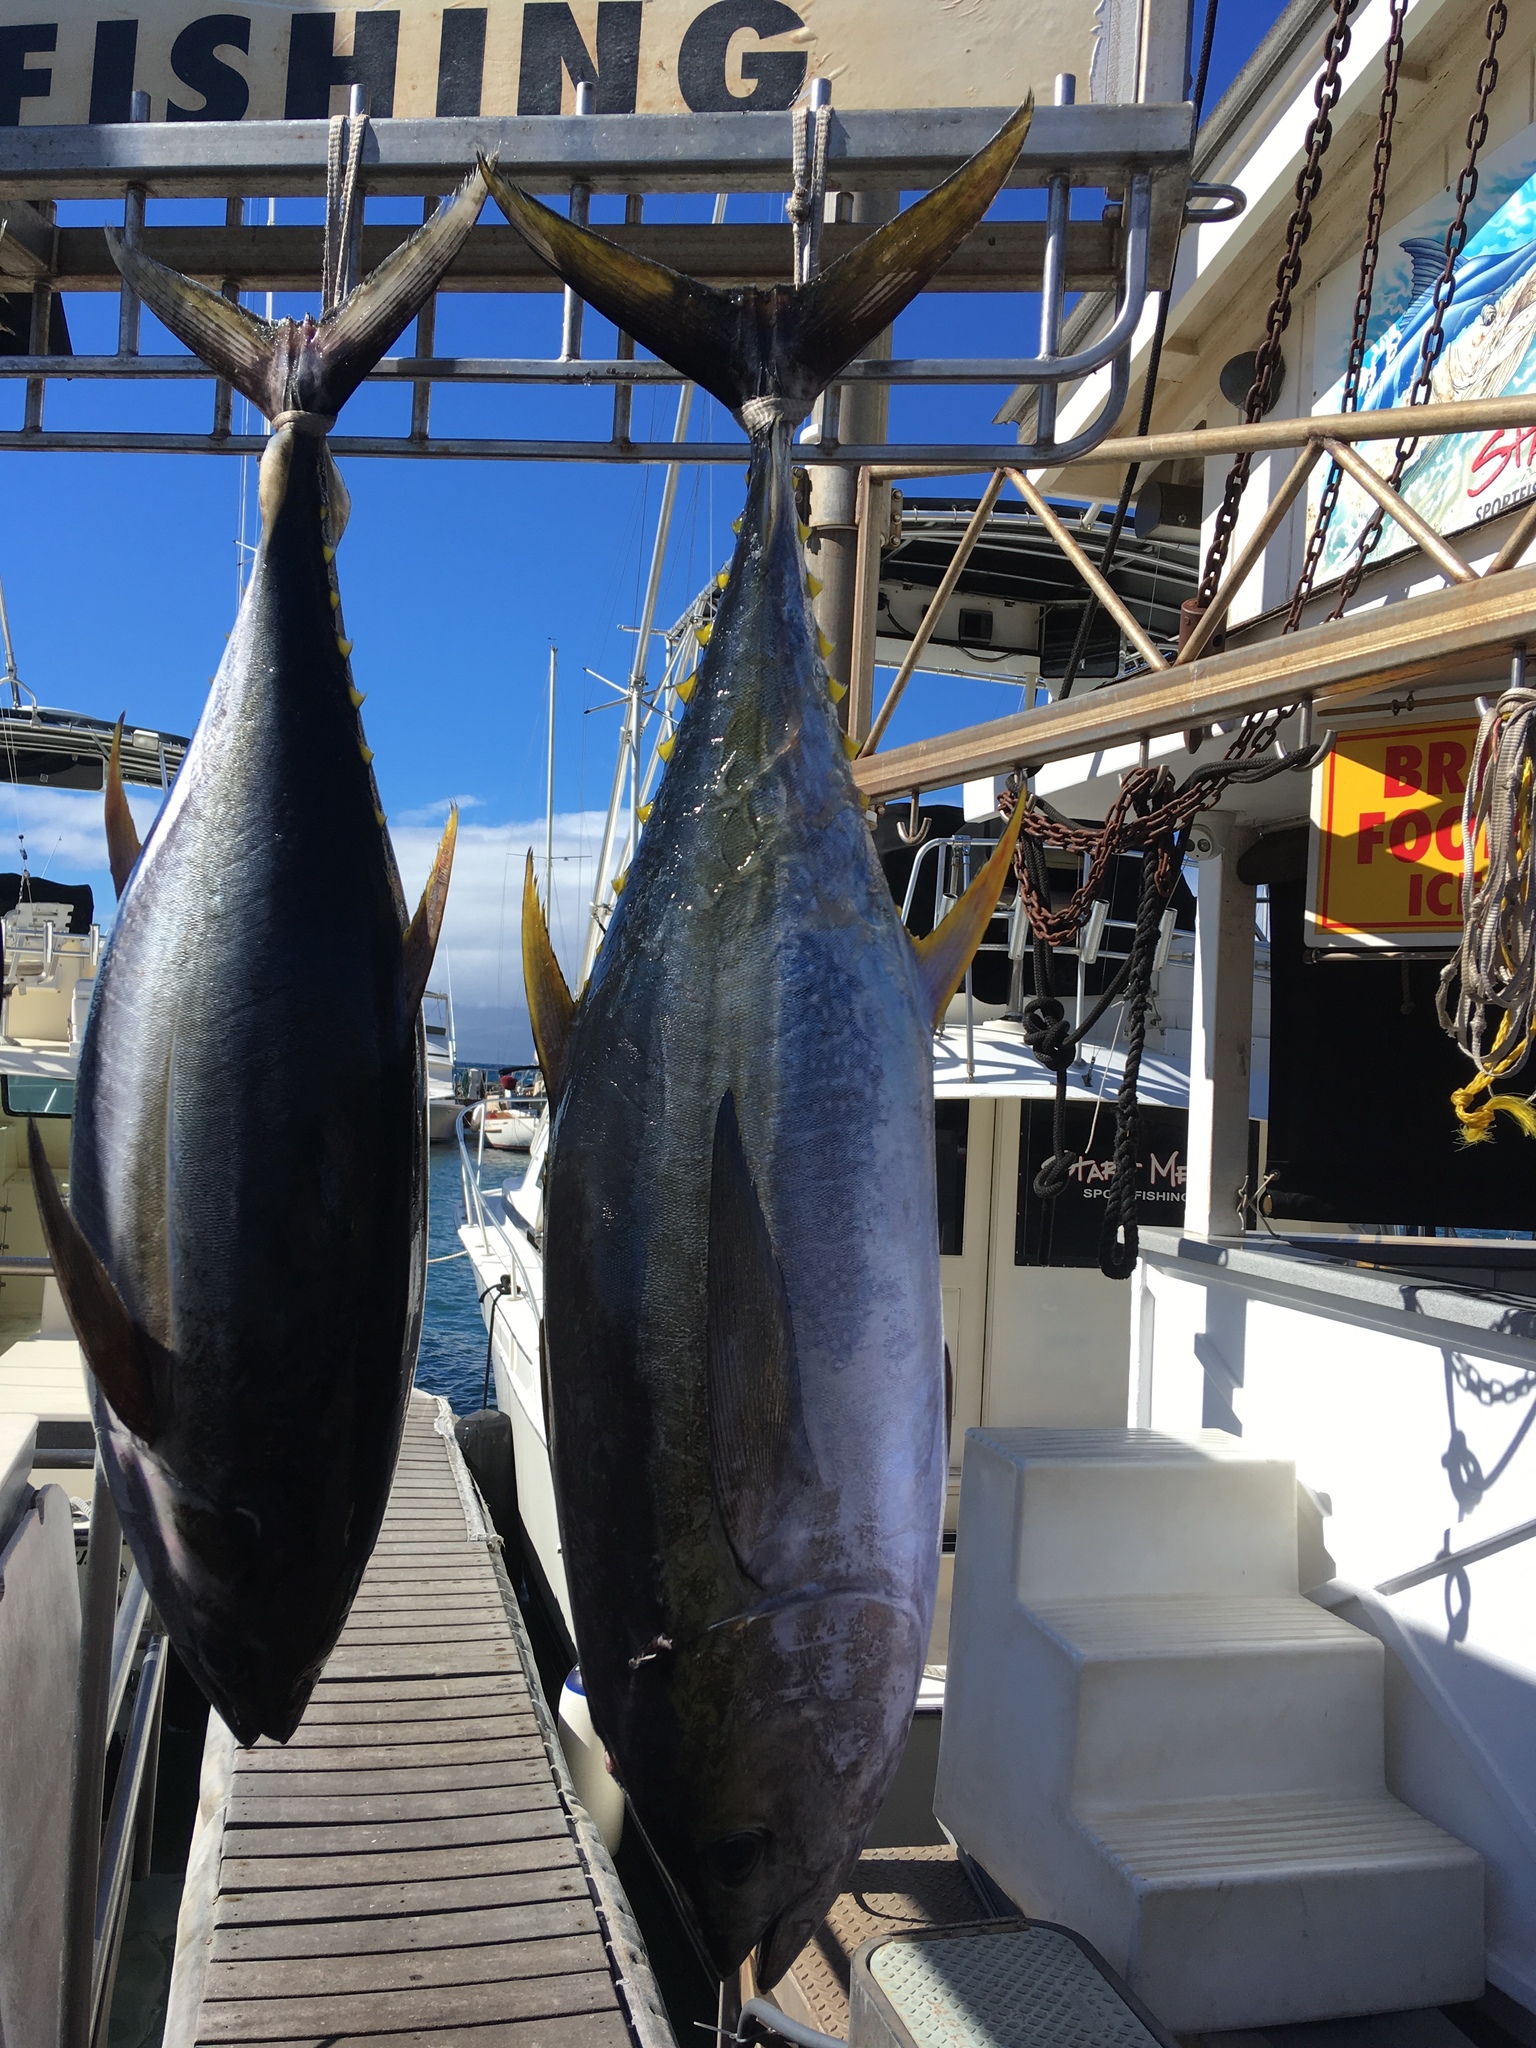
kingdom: Animalia
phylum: Chordata
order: Perciformes
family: Scombridae
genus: Thunnus
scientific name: Thunnus albacares
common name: Yellowfin tuna
